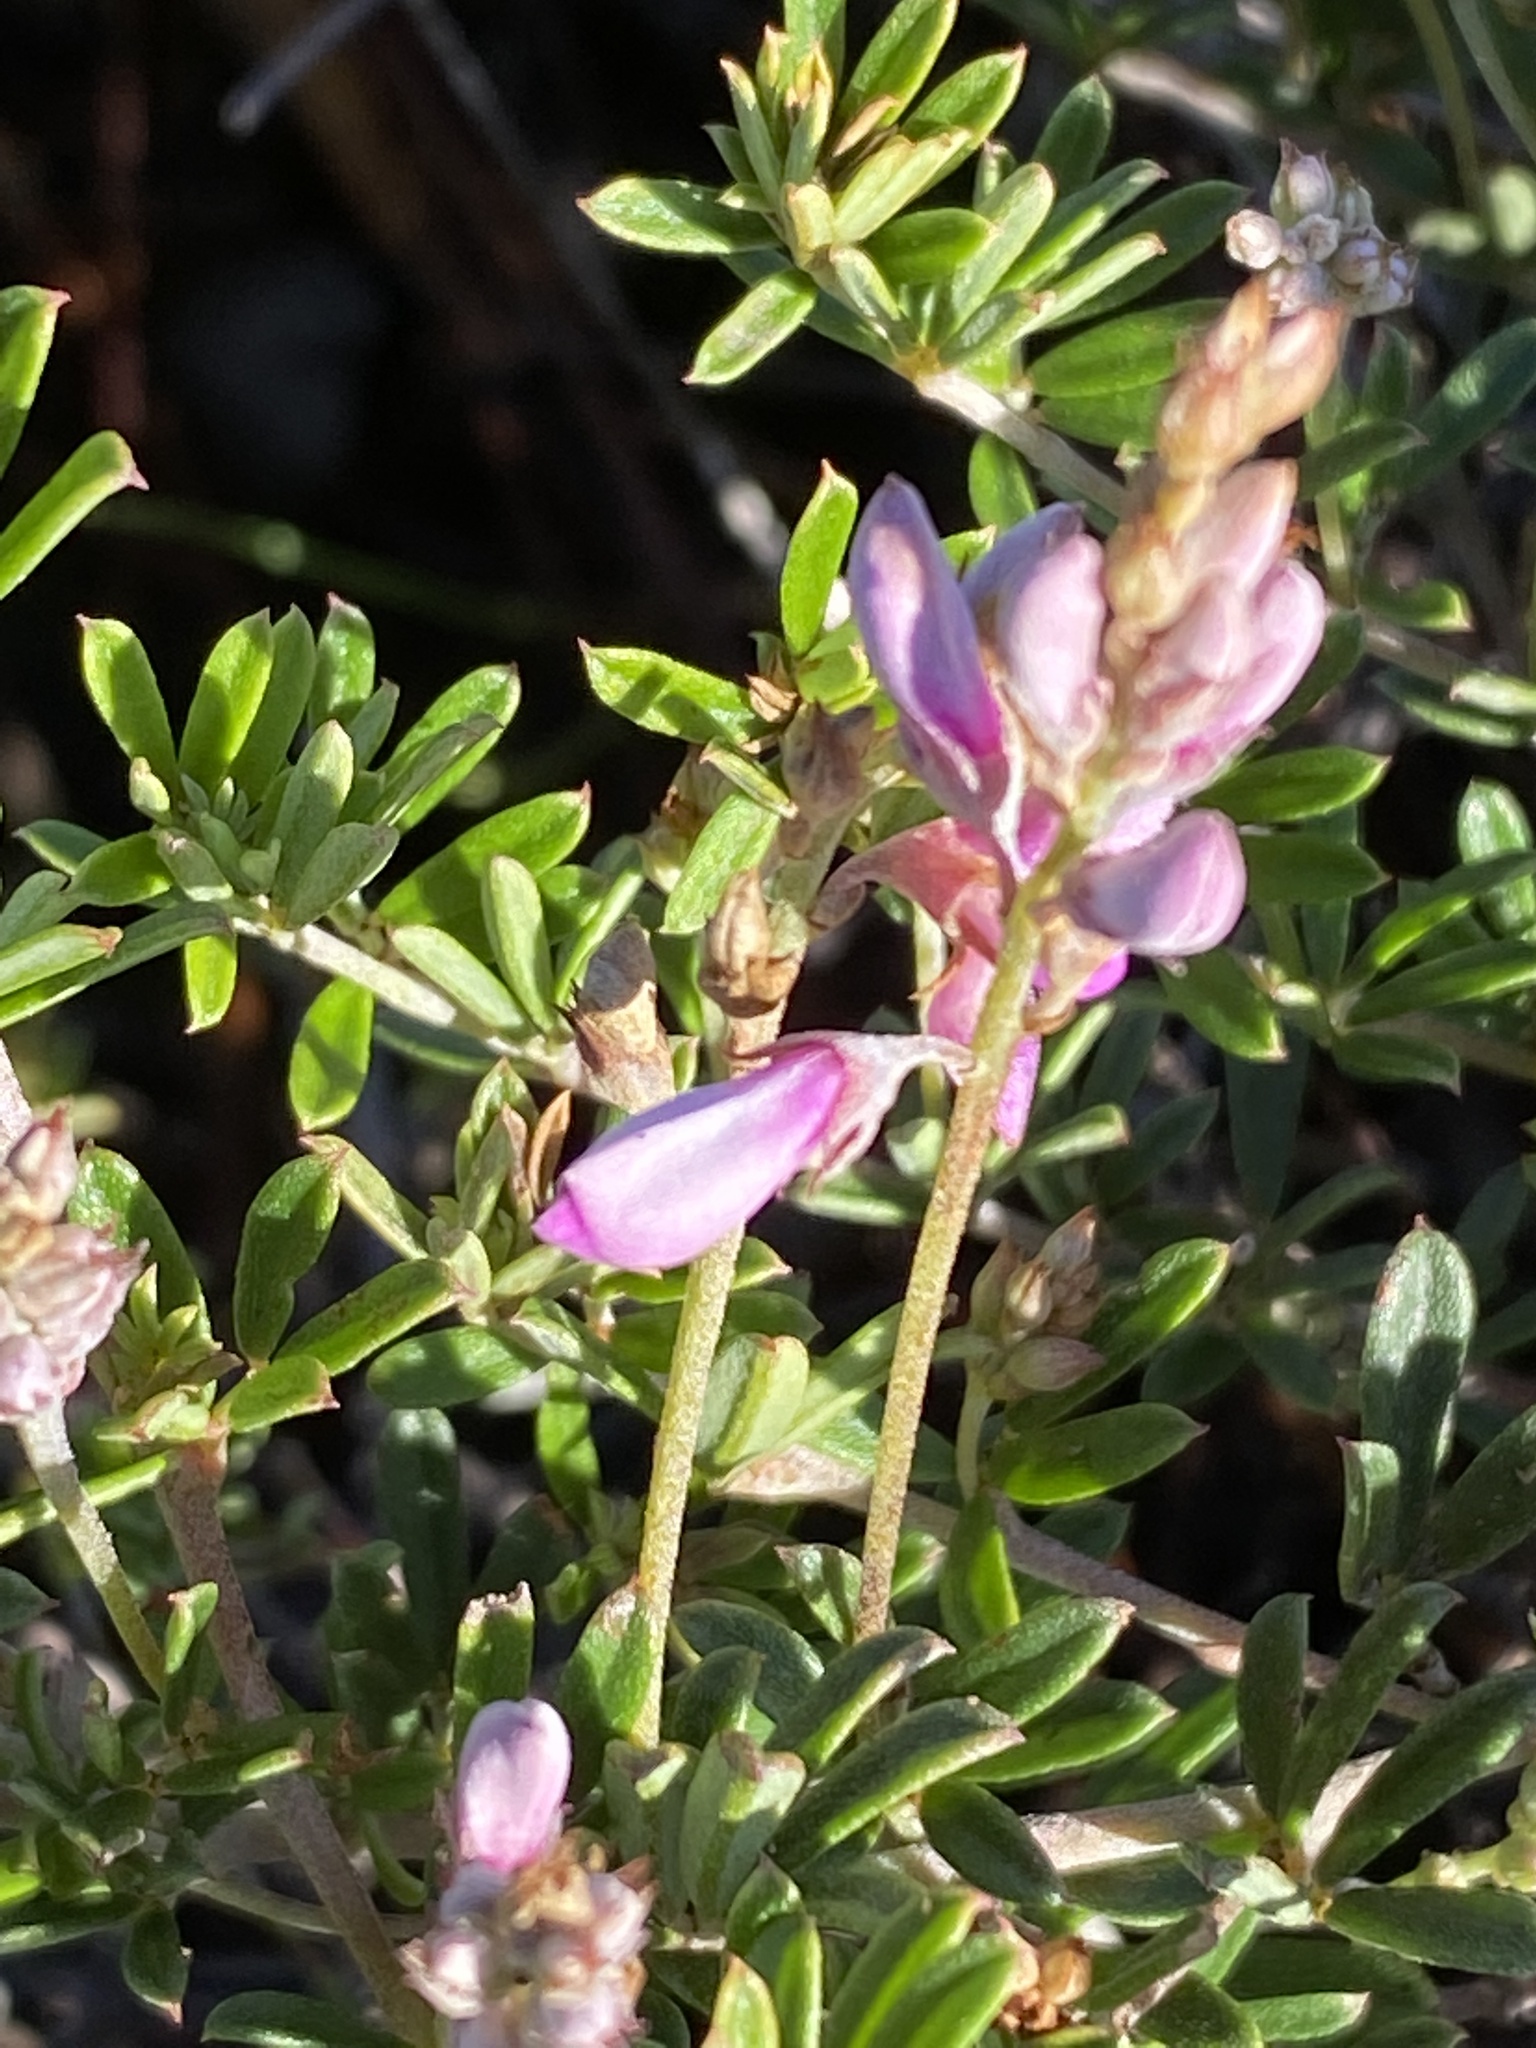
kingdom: Plantae
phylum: Tracheophyta
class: Magnoliopsida
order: Fabales
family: Fabaceae
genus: Indigofera
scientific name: Indigofera
